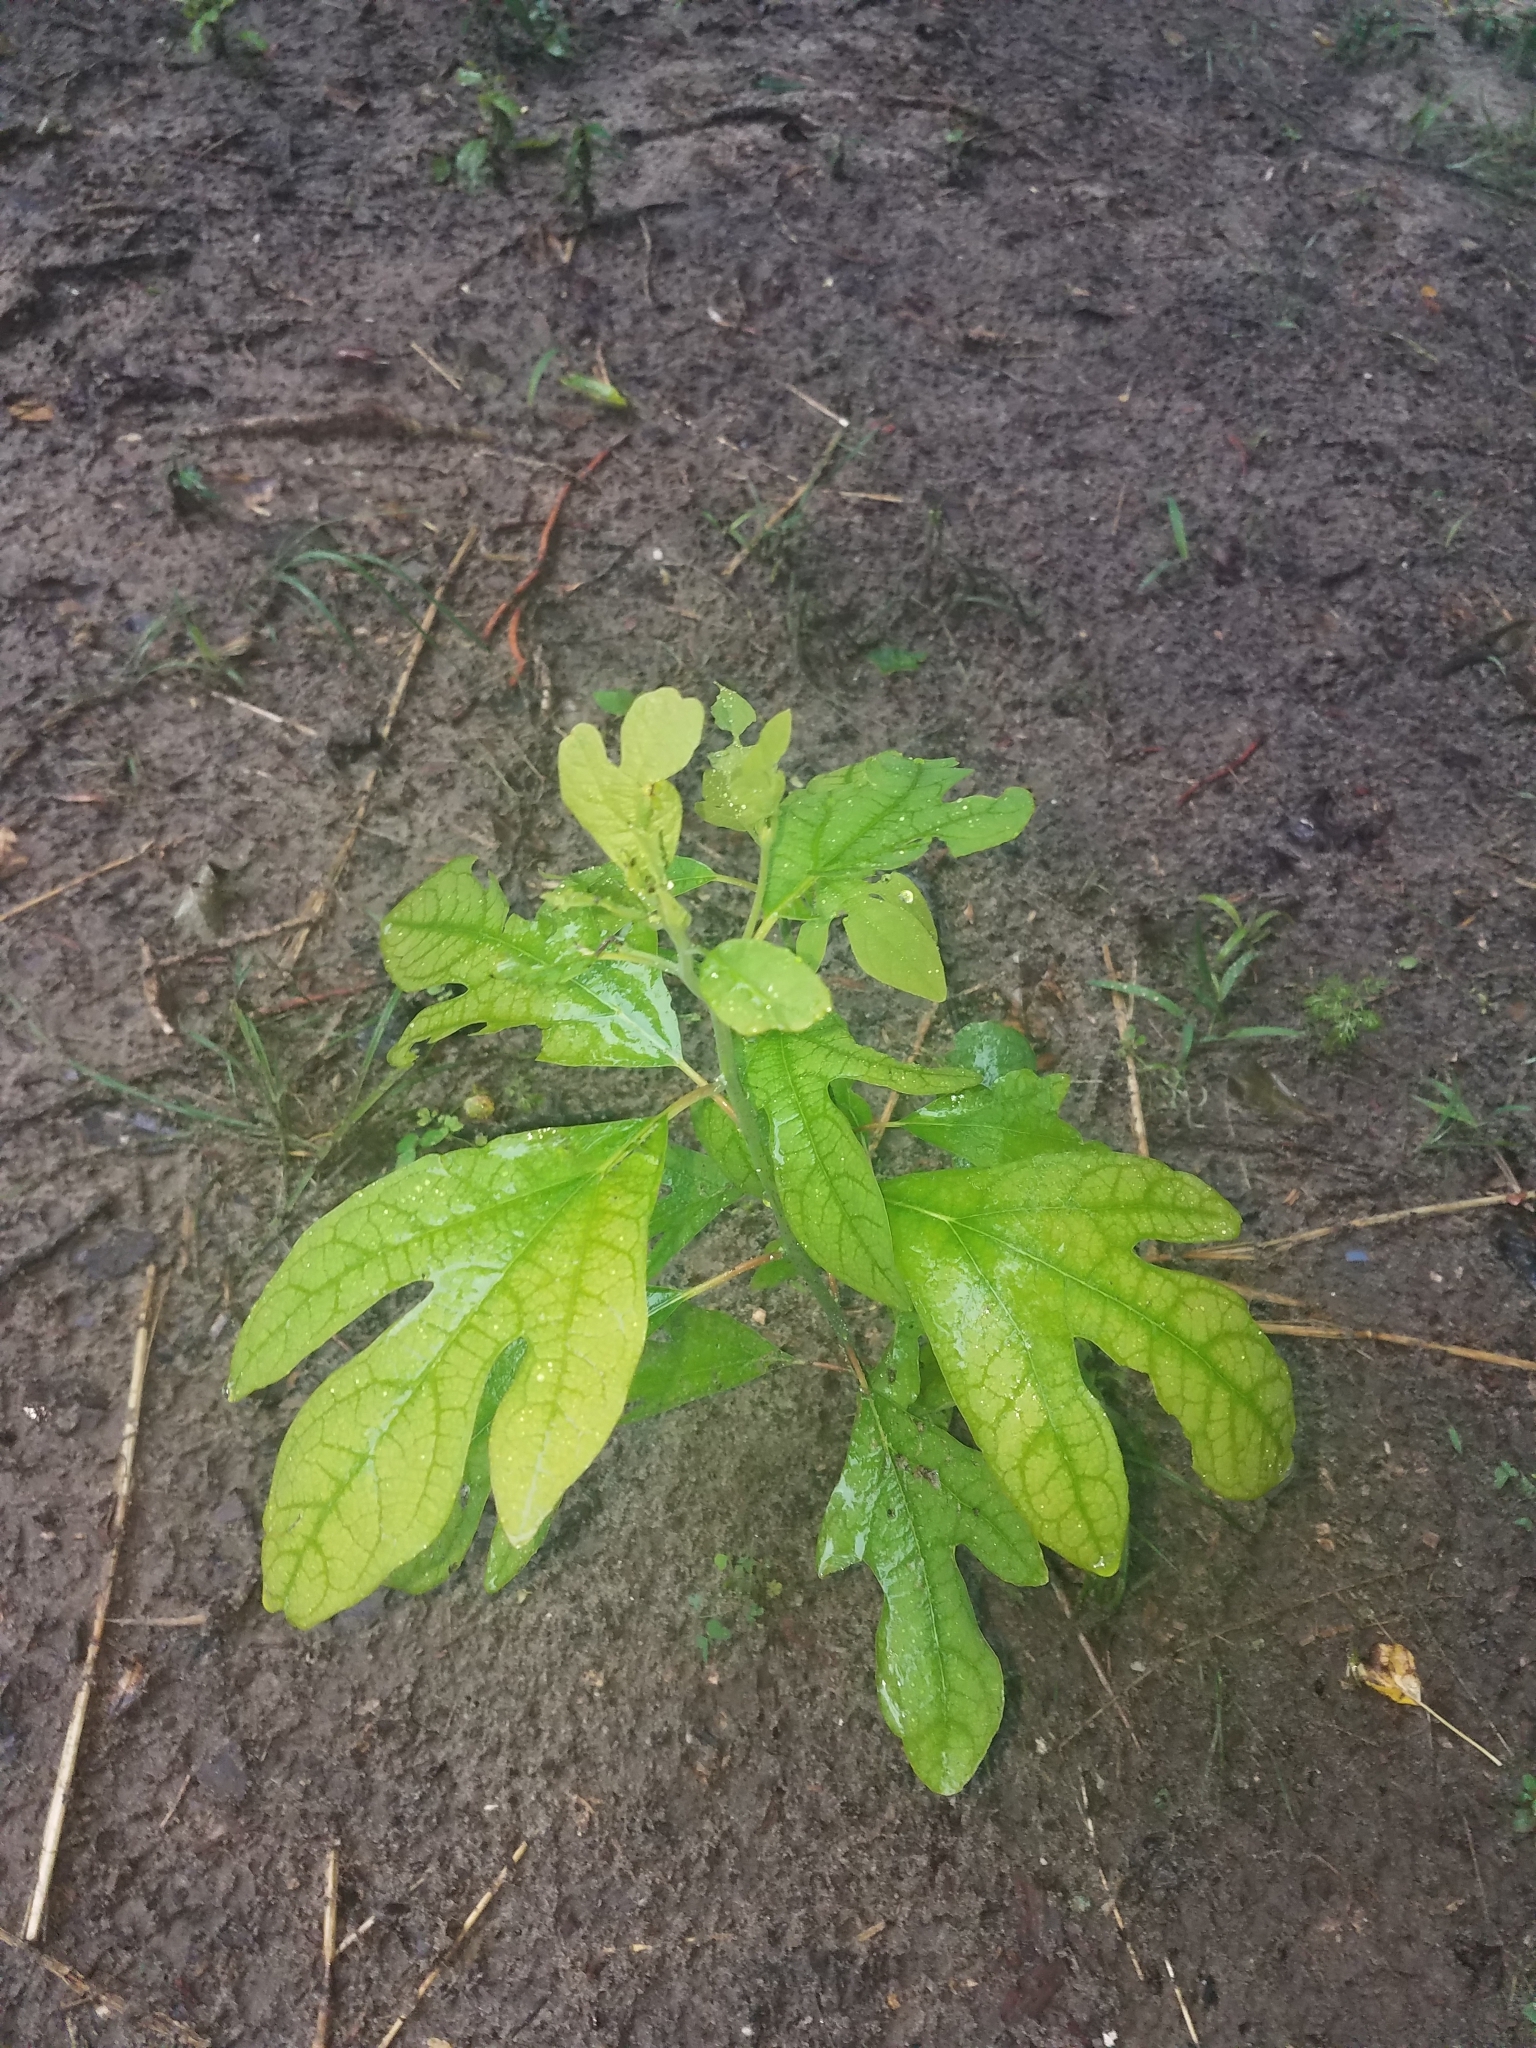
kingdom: Plantae
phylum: Tracheophyta
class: Magnoliopsida
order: Laurales
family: Lauraceae
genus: Sassafras
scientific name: Sassafras albidum
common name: Sassafras
